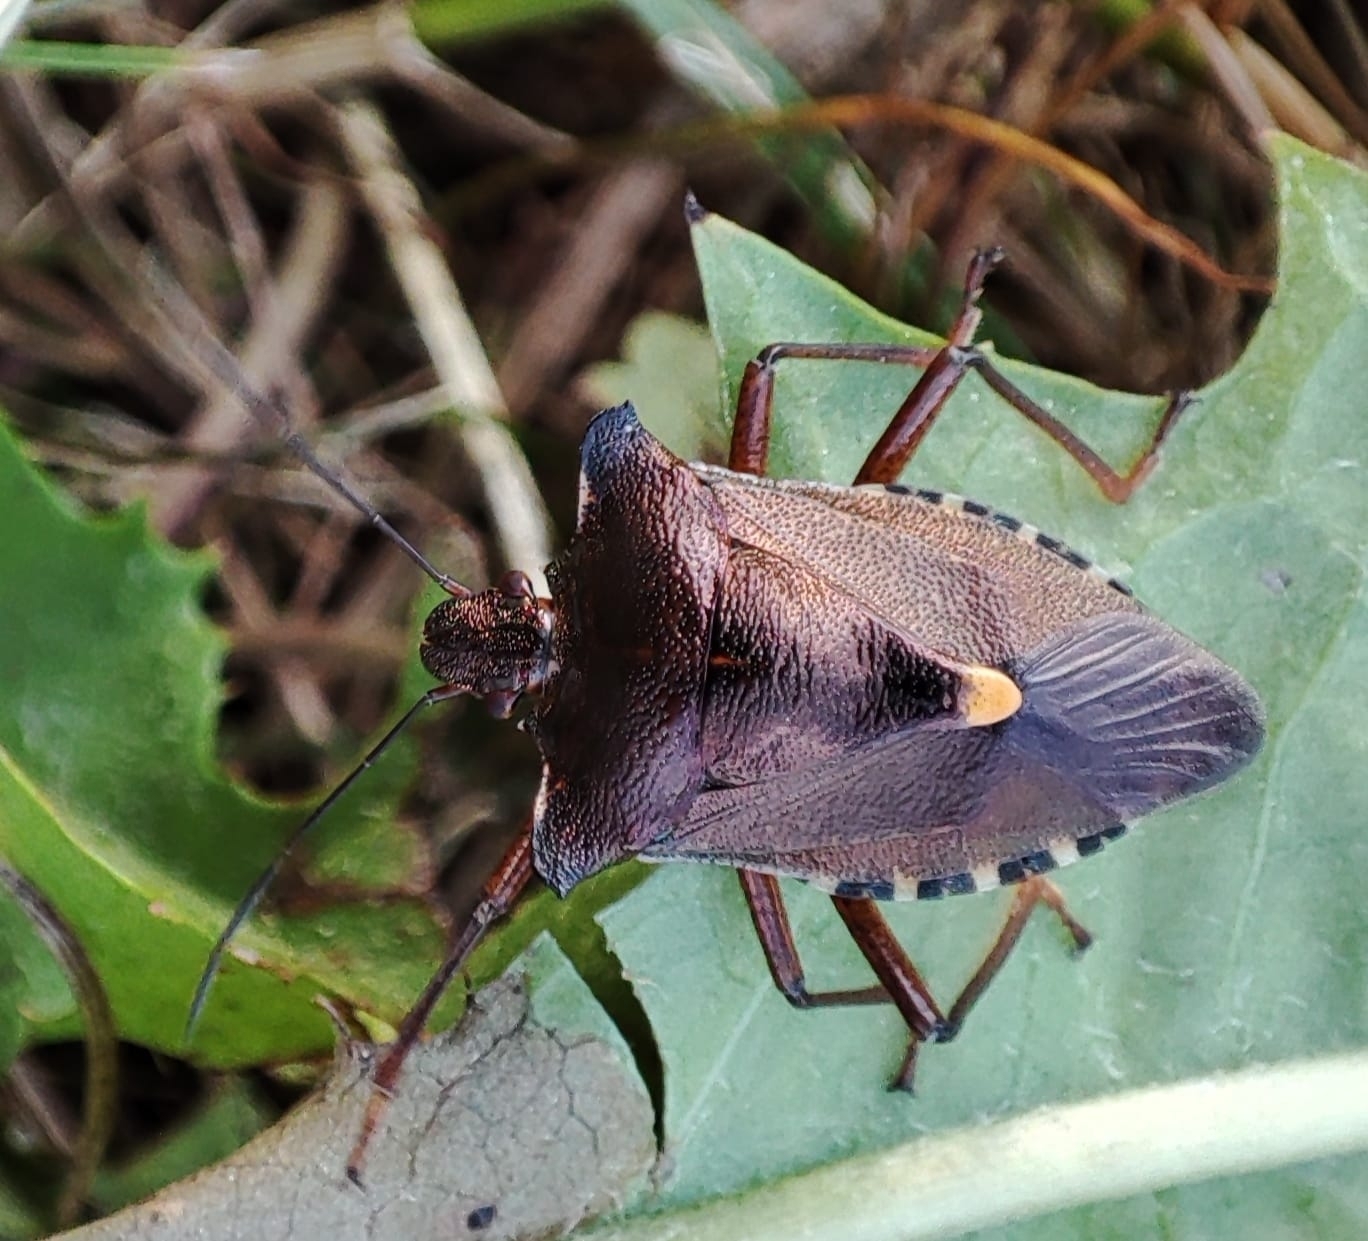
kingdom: Animalia
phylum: Arthropoda
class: Insecta
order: Hemiptera
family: Pentatomidae
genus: Pentatoma
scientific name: Pentatoma rufipes
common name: Forest bug
